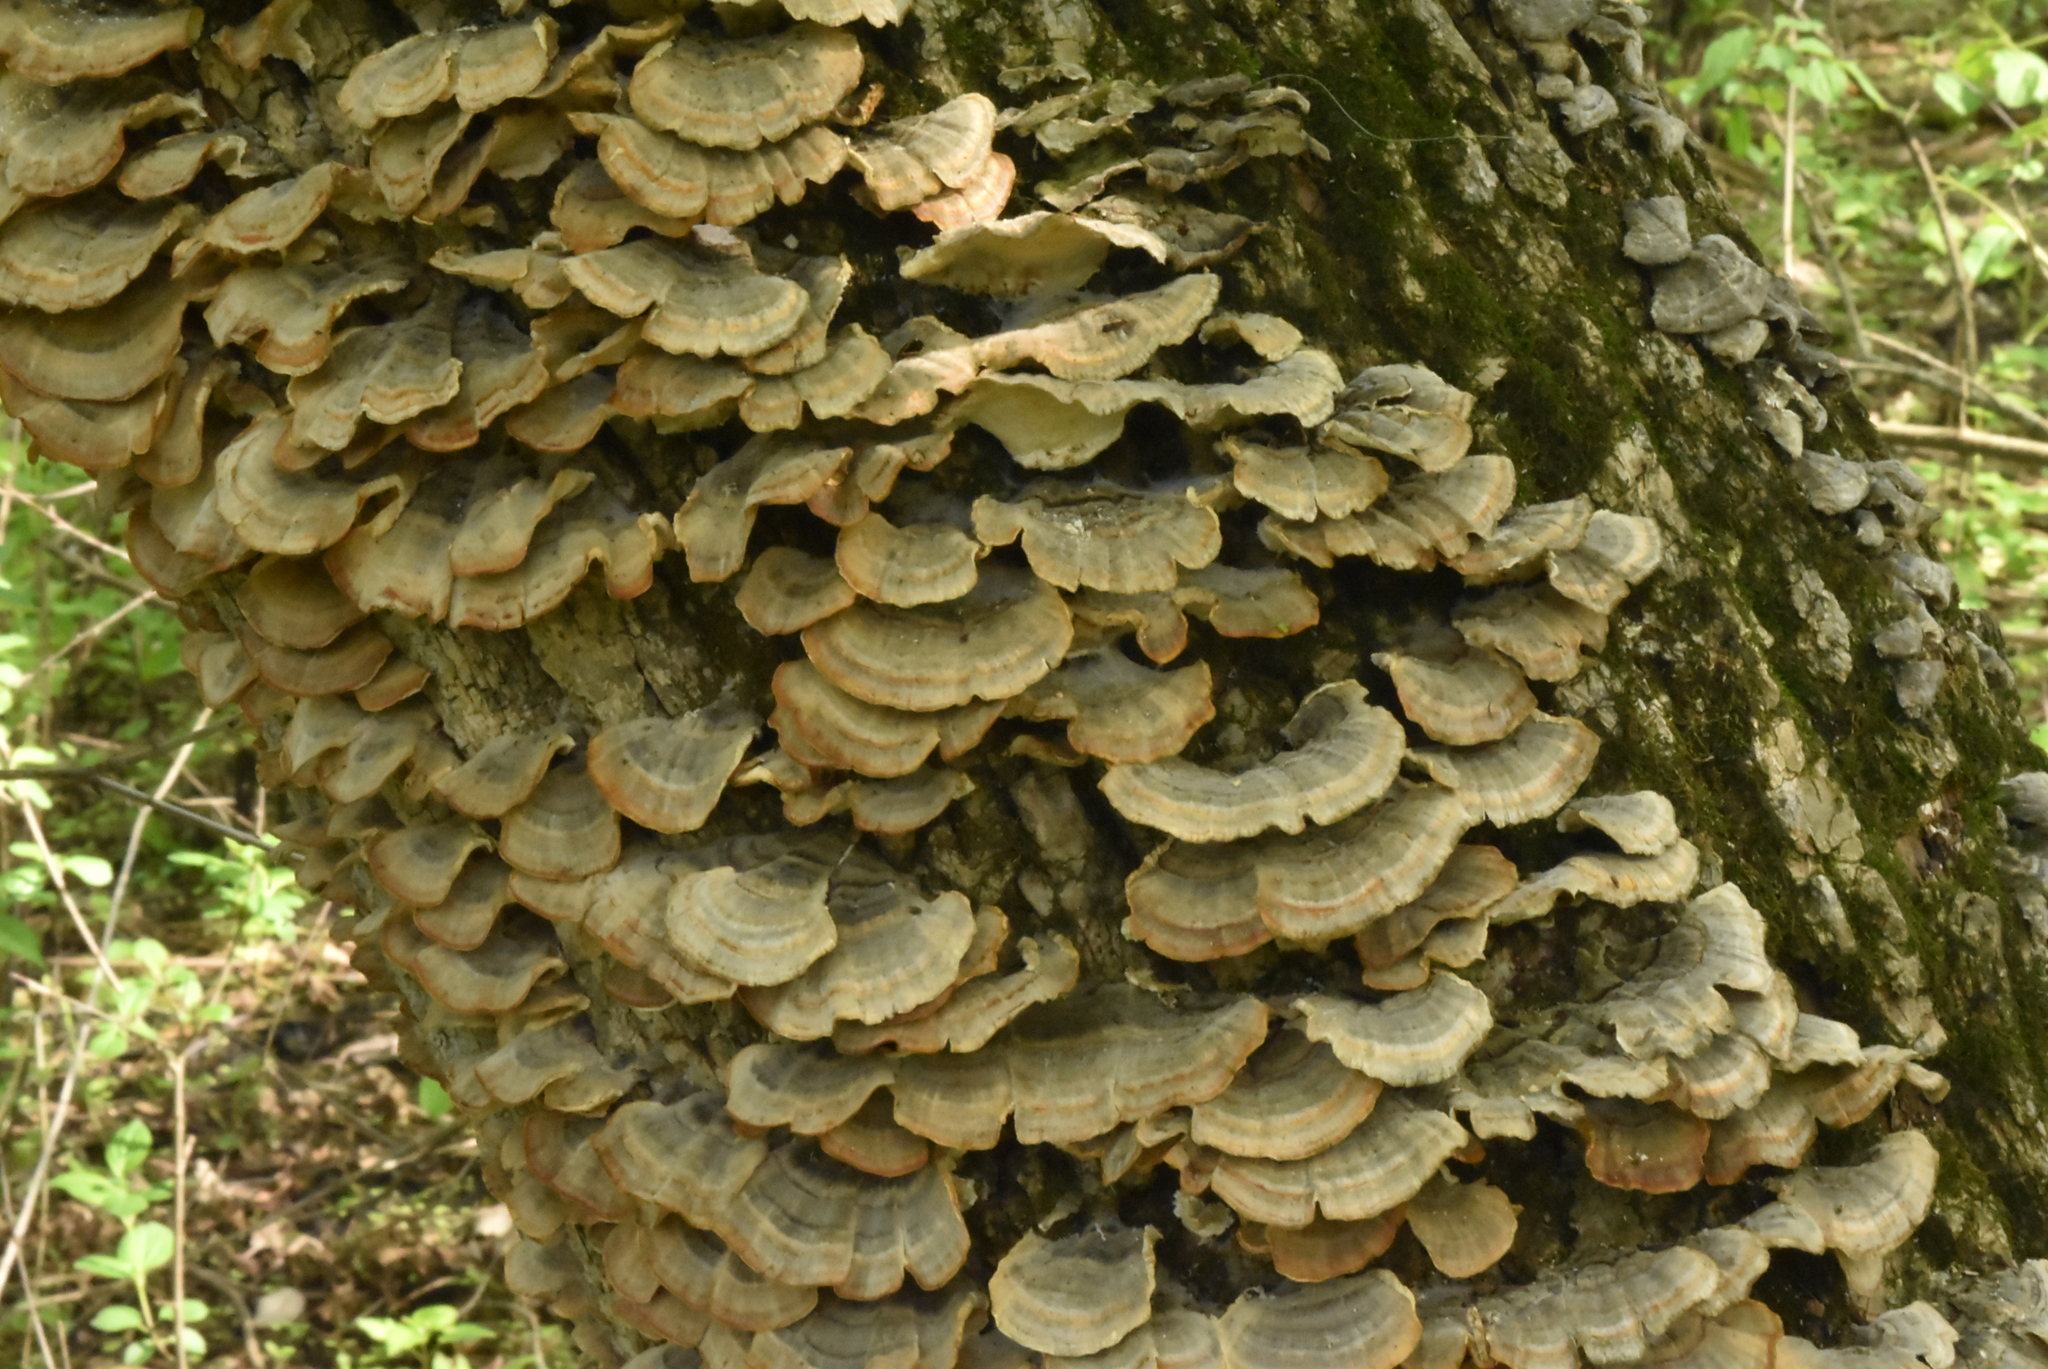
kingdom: Fungi
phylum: Basidiomycota
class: Agaricomycetes
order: Polyporales
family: Polyporaceae
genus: Trametes
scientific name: Trametes versicolor
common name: Turkeytail
